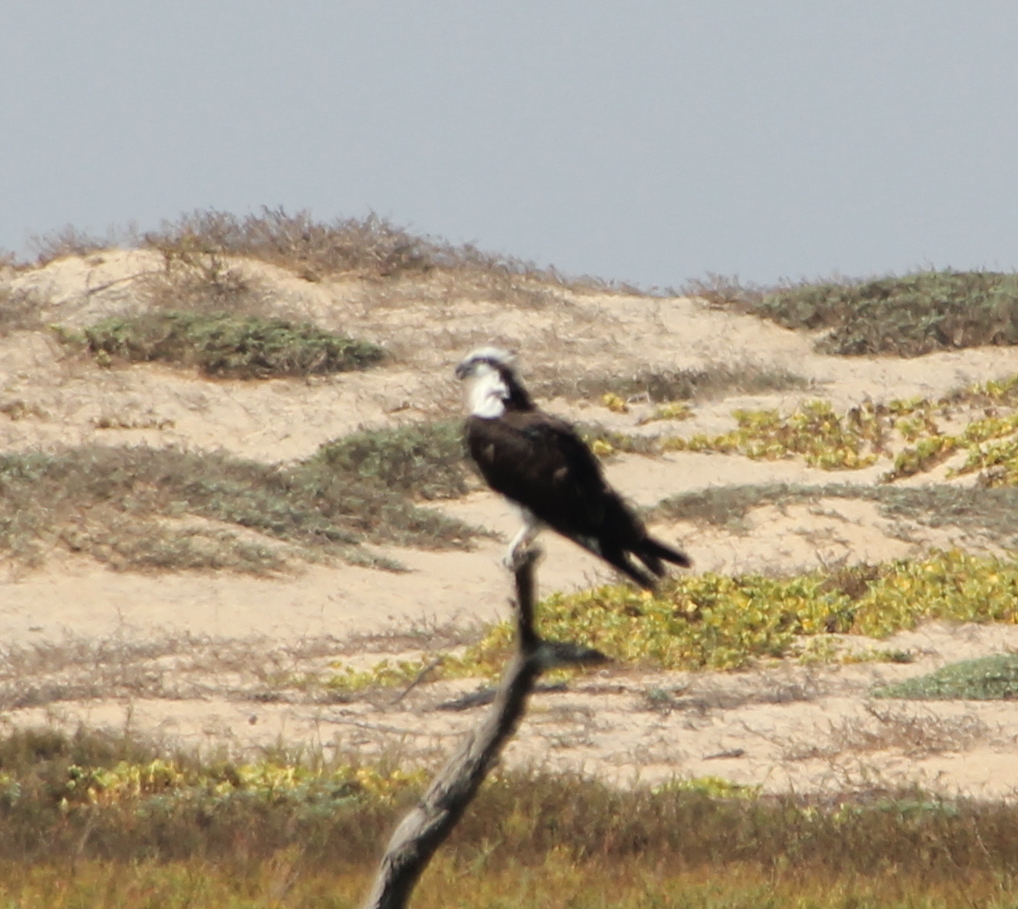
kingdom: Animalia
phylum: Chordata
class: Aves
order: Accipitriformes
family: Pandionidae
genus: Pandion
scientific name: Pandion haliaetus
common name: Osprey
